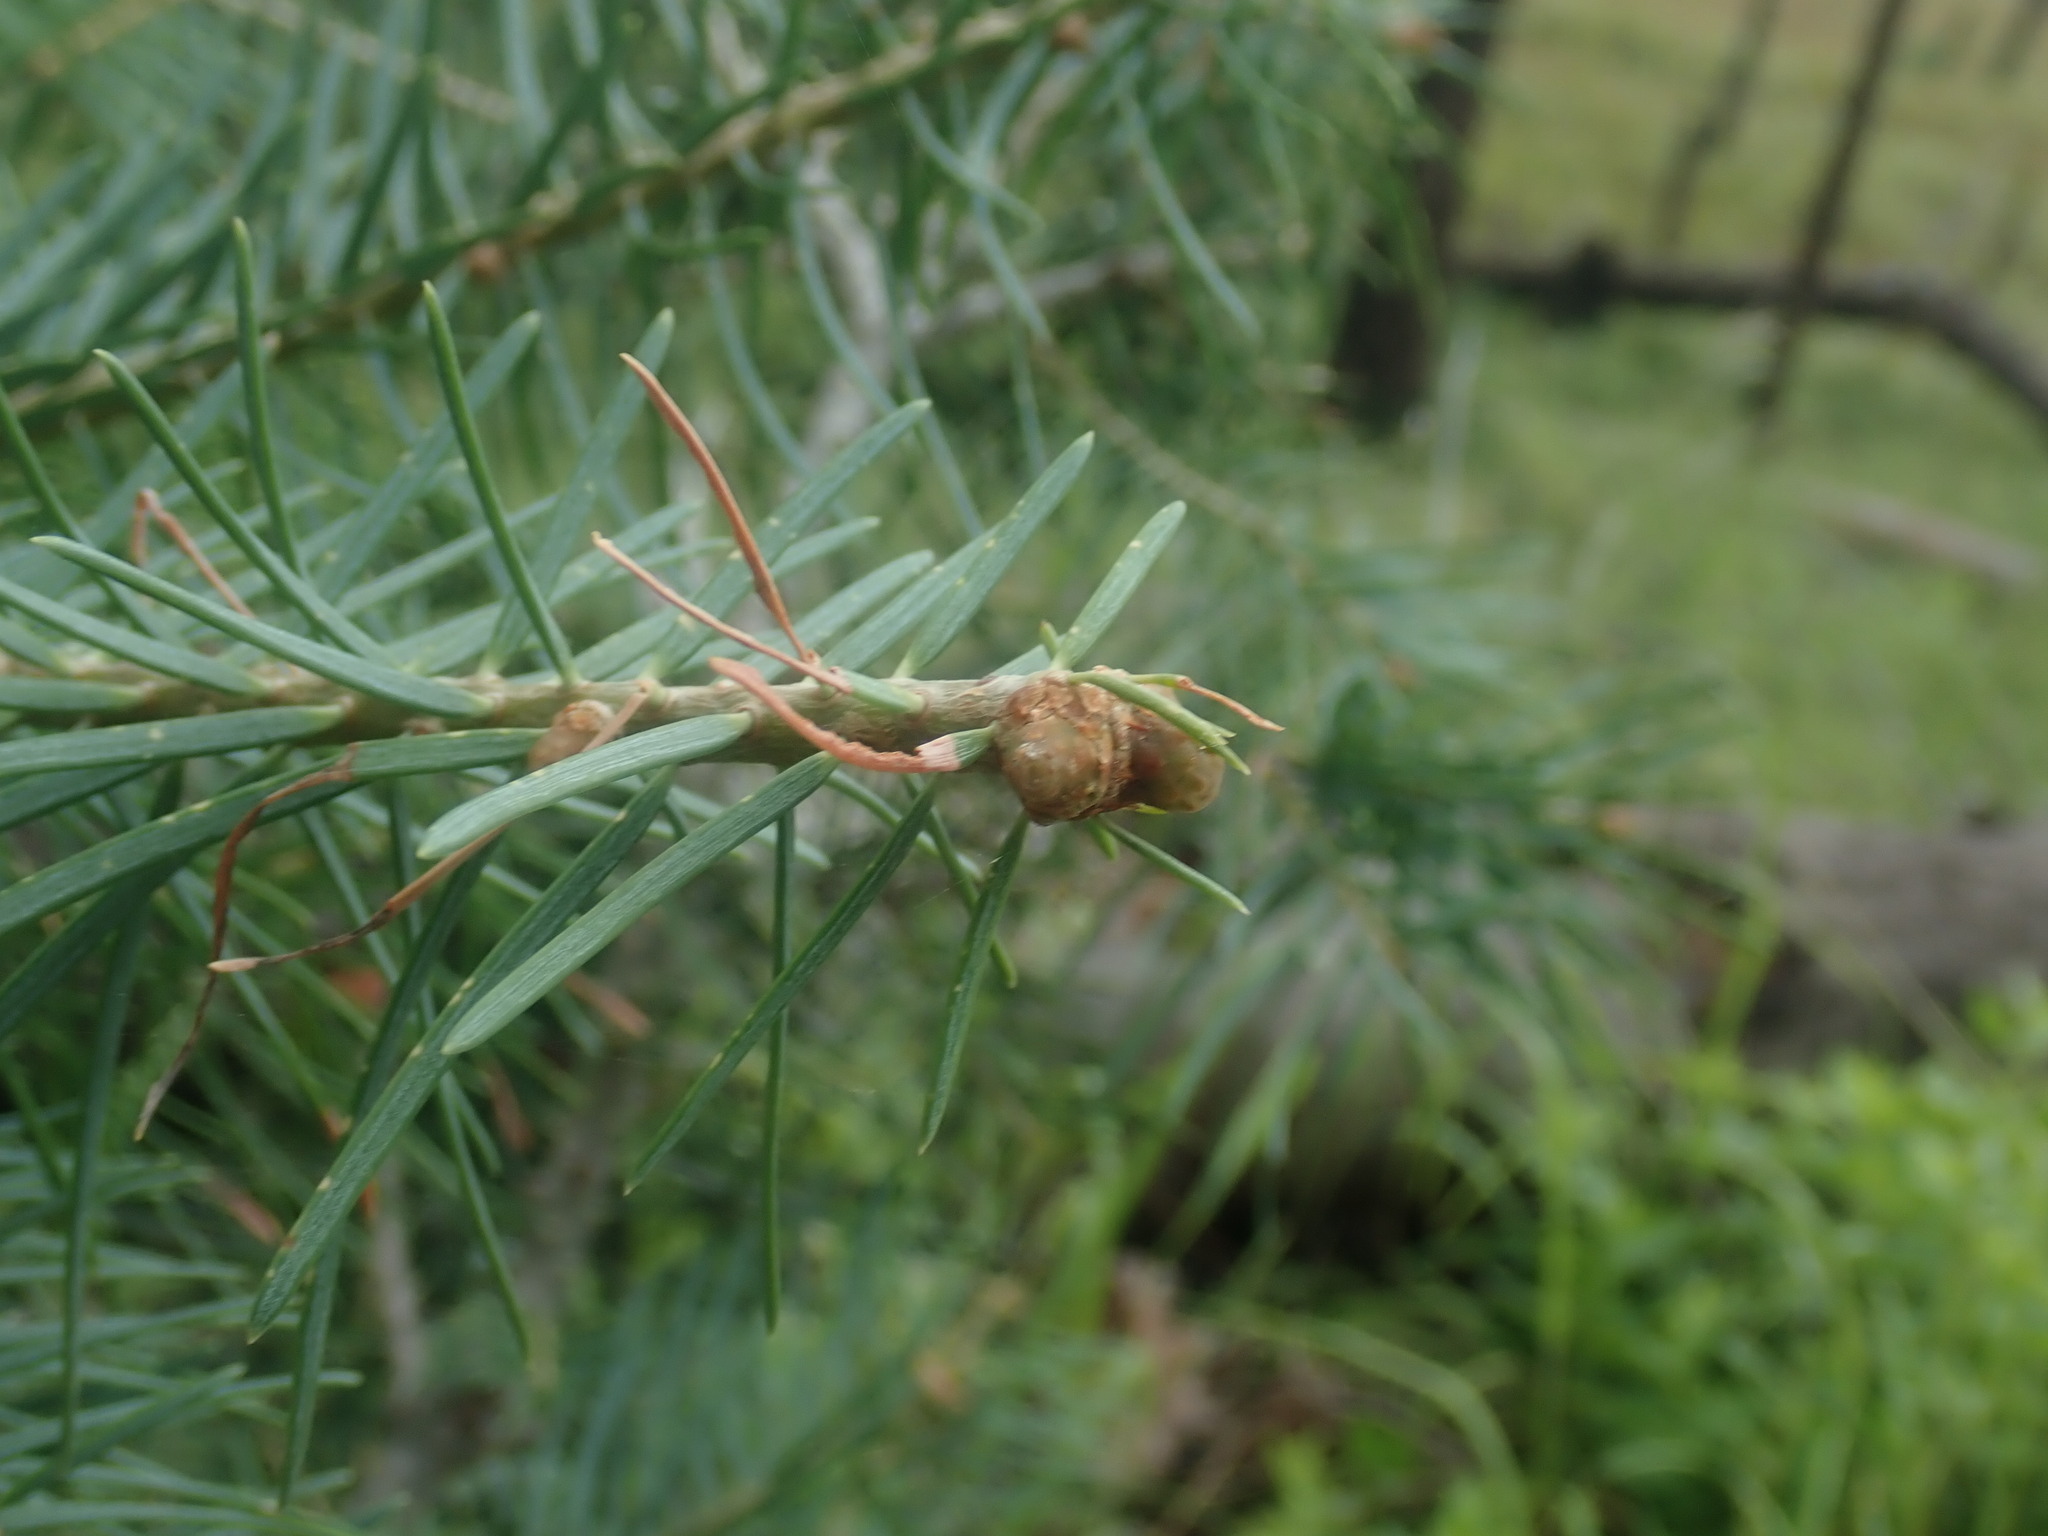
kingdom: Plantae
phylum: Tracheophyta
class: Pinopsida
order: Pinales
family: Pinaceae
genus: Abies
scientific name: Abies concolor
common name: Colorado fir
